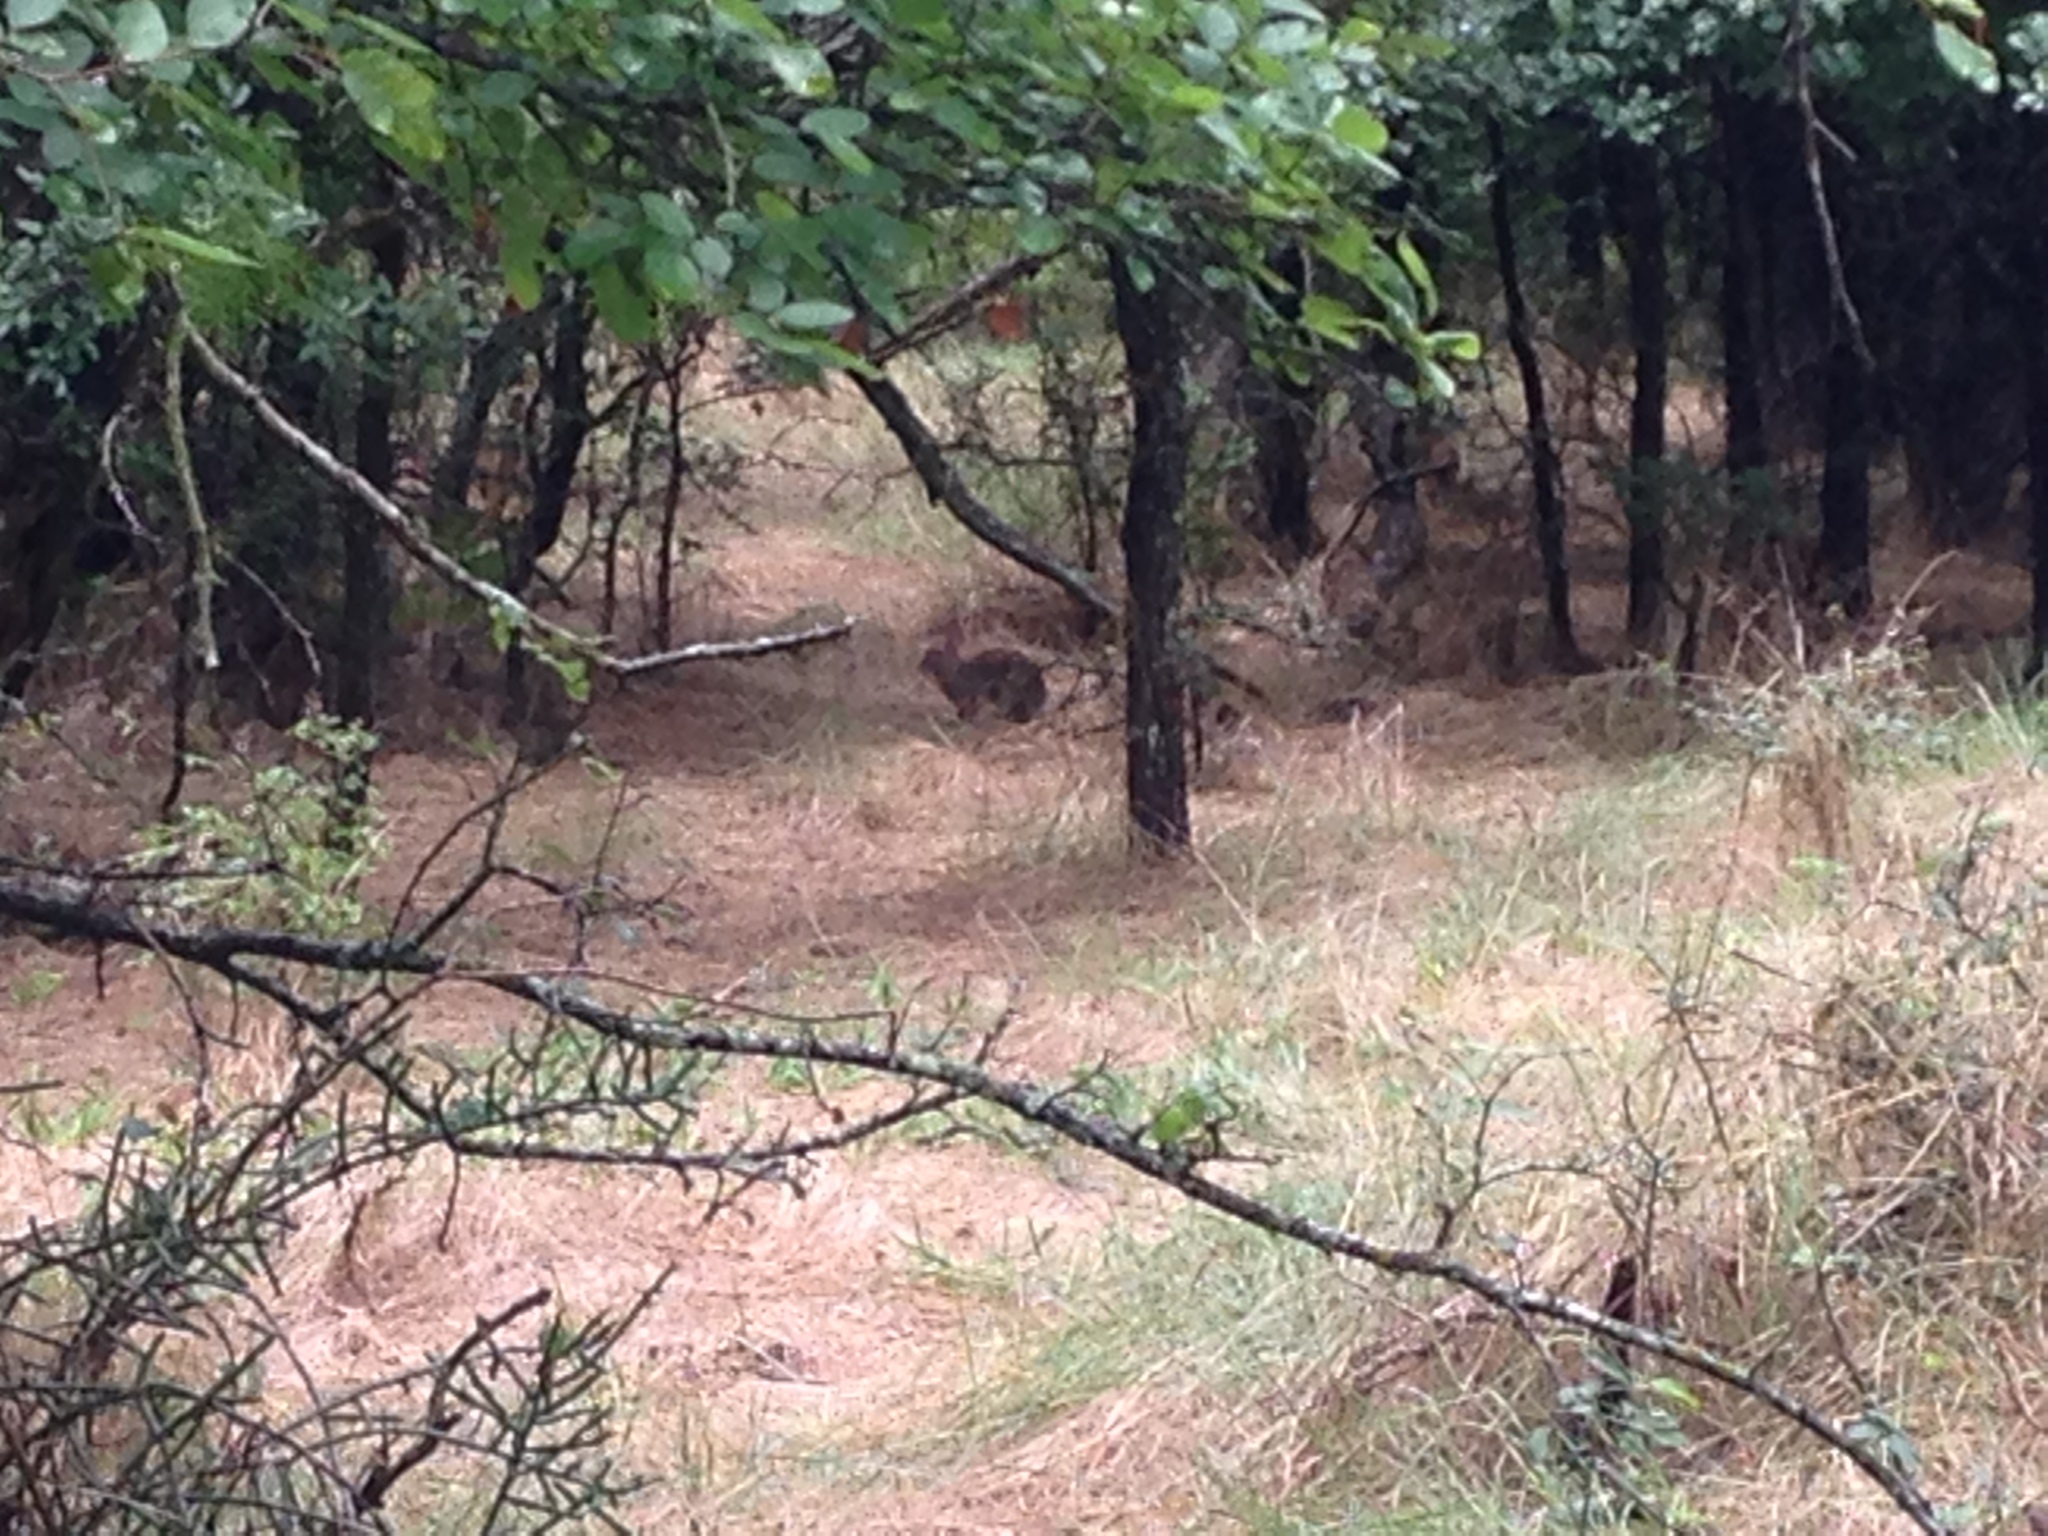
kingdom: Animalia
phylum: Chordata
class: Mammalia
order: Lagomorpha
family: Leporidae
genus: Sylvilagus
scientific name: Sylvilagus floridanus
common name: Eastern cottontail
